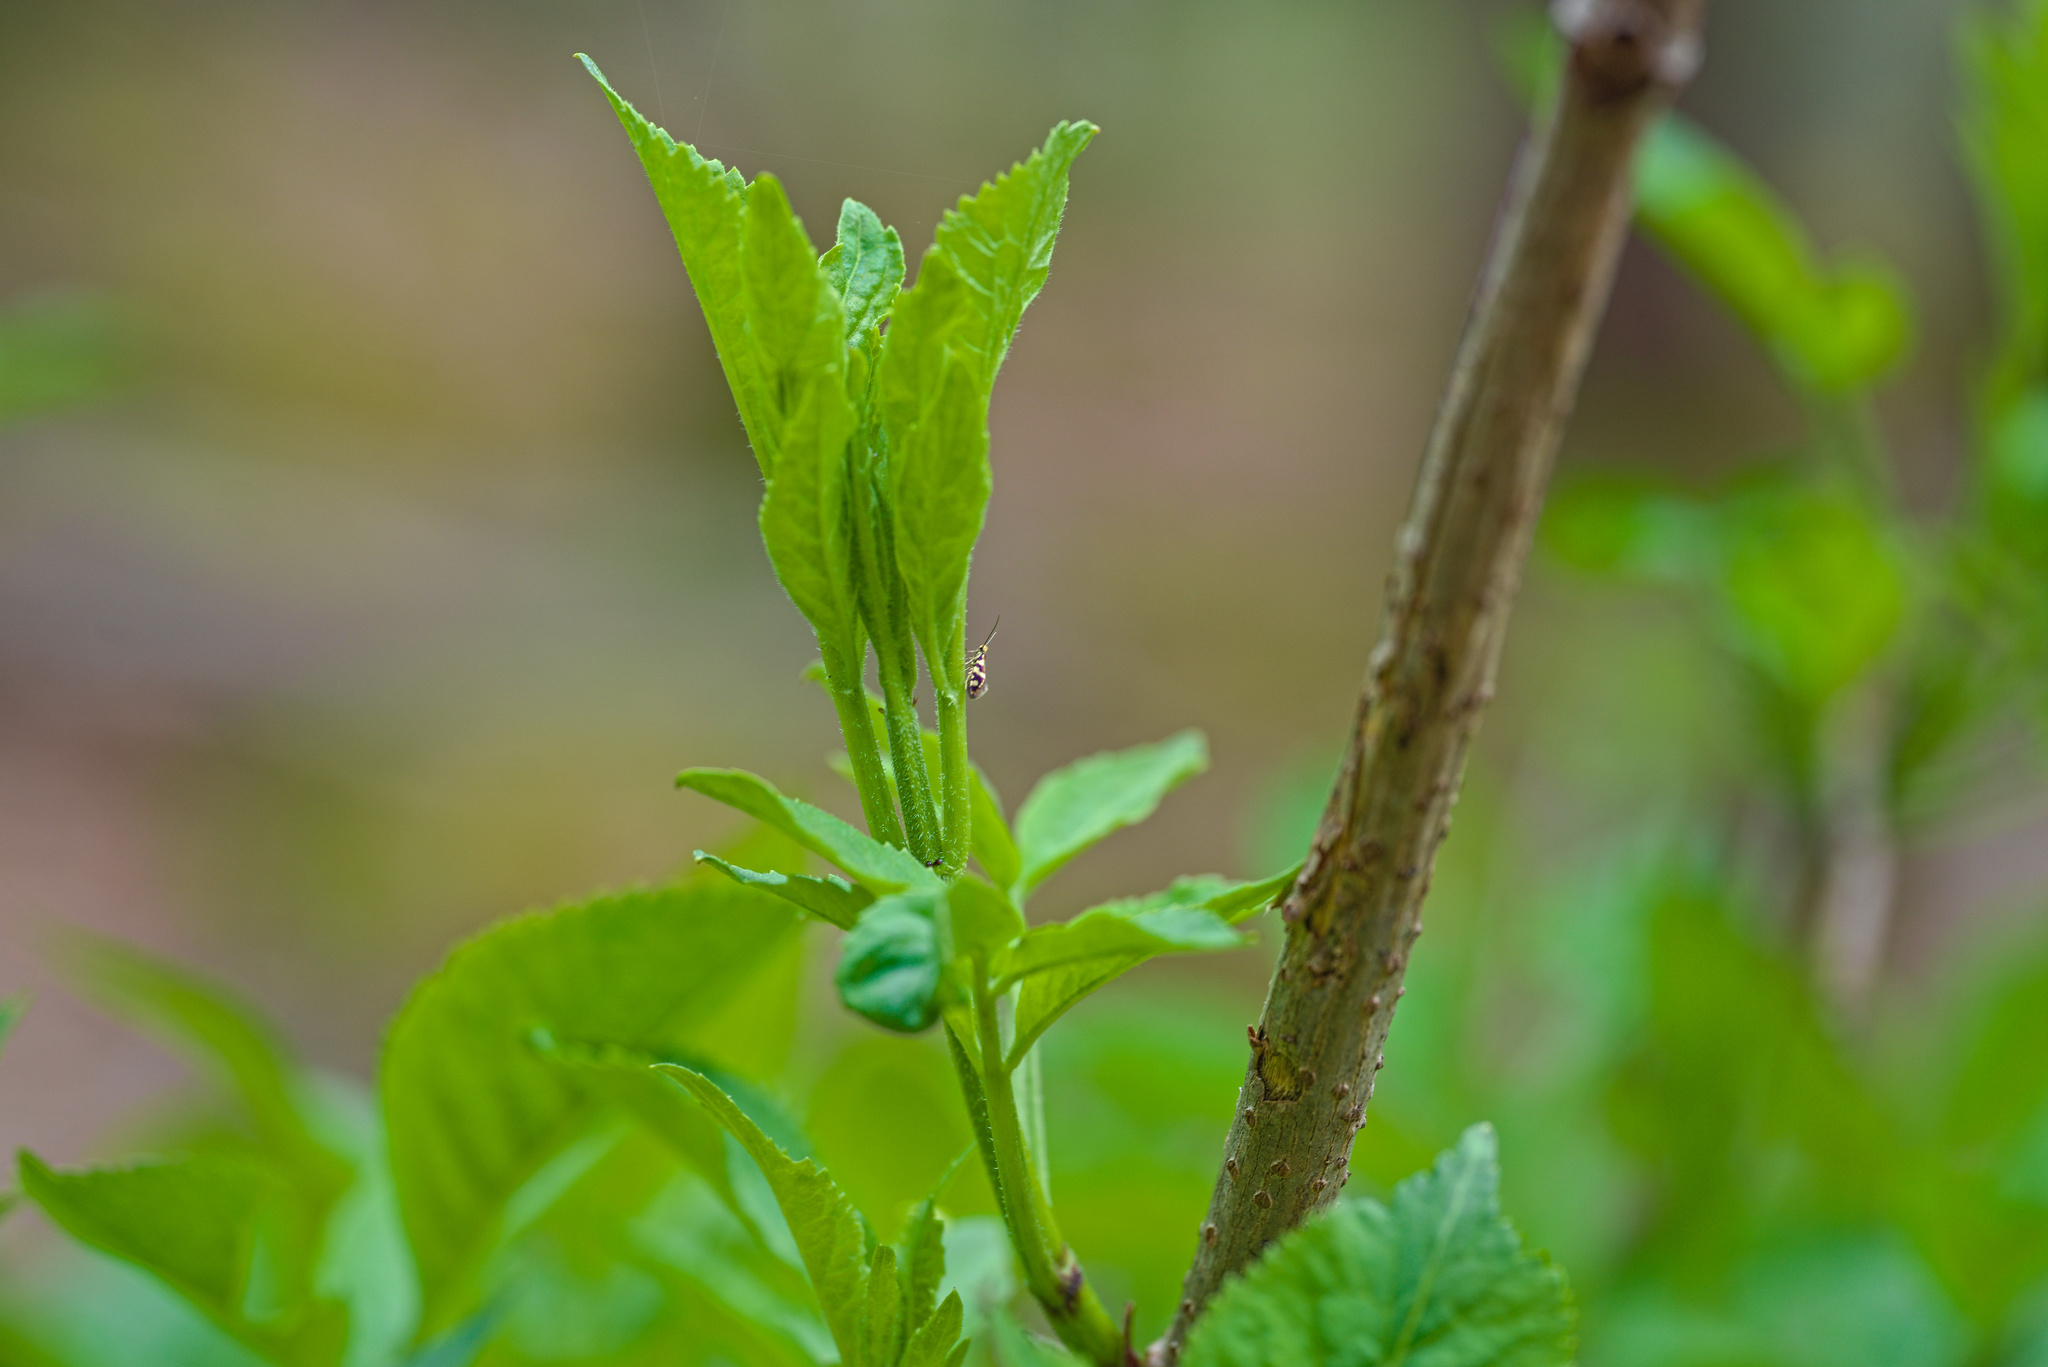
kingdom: Plantae
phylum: Tracheophyta
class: Magnoliopsida
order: Dipsacales
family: Viburnaceae
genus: Sambucus
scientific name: Sambucus nigra
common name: Elder
